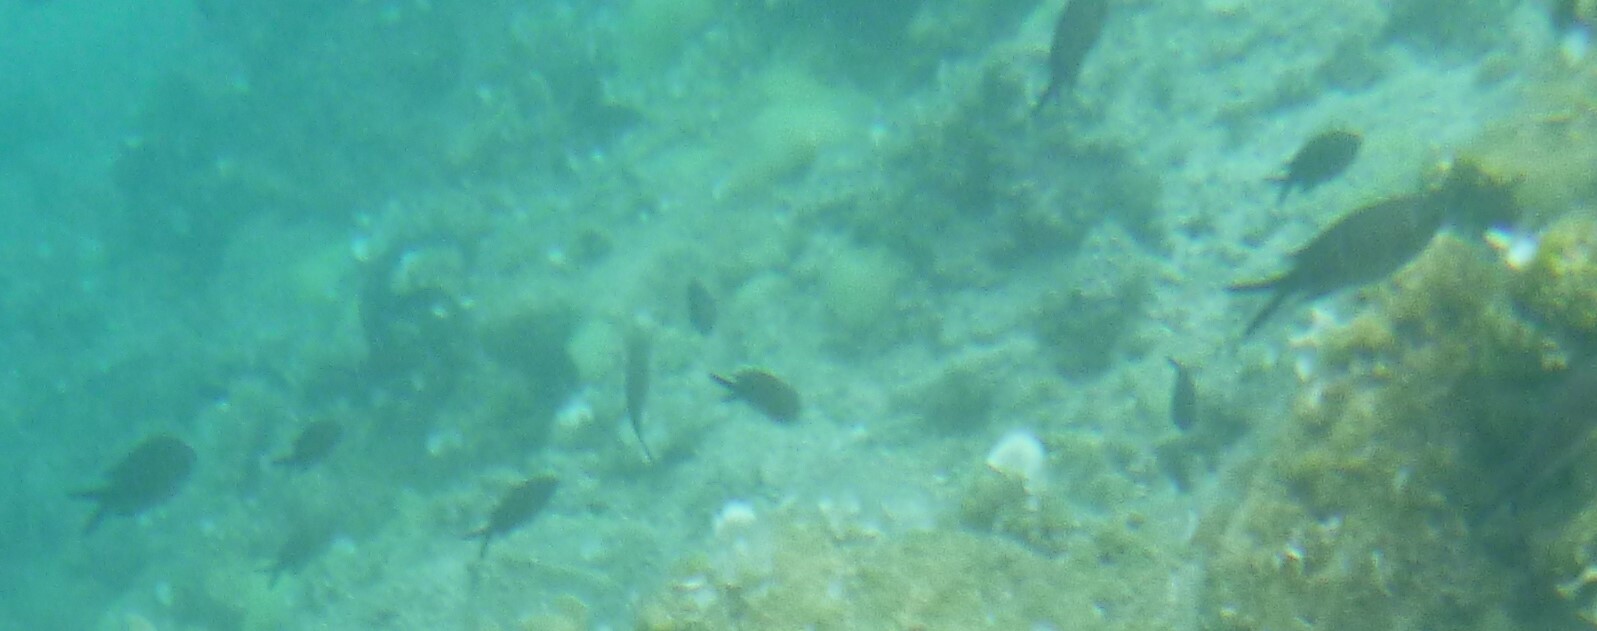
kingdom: Animalia
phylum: Chordata
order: Perciformes
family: Pomacentridae
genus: Chromis
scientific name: Chromis chromis
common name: Damselfish
